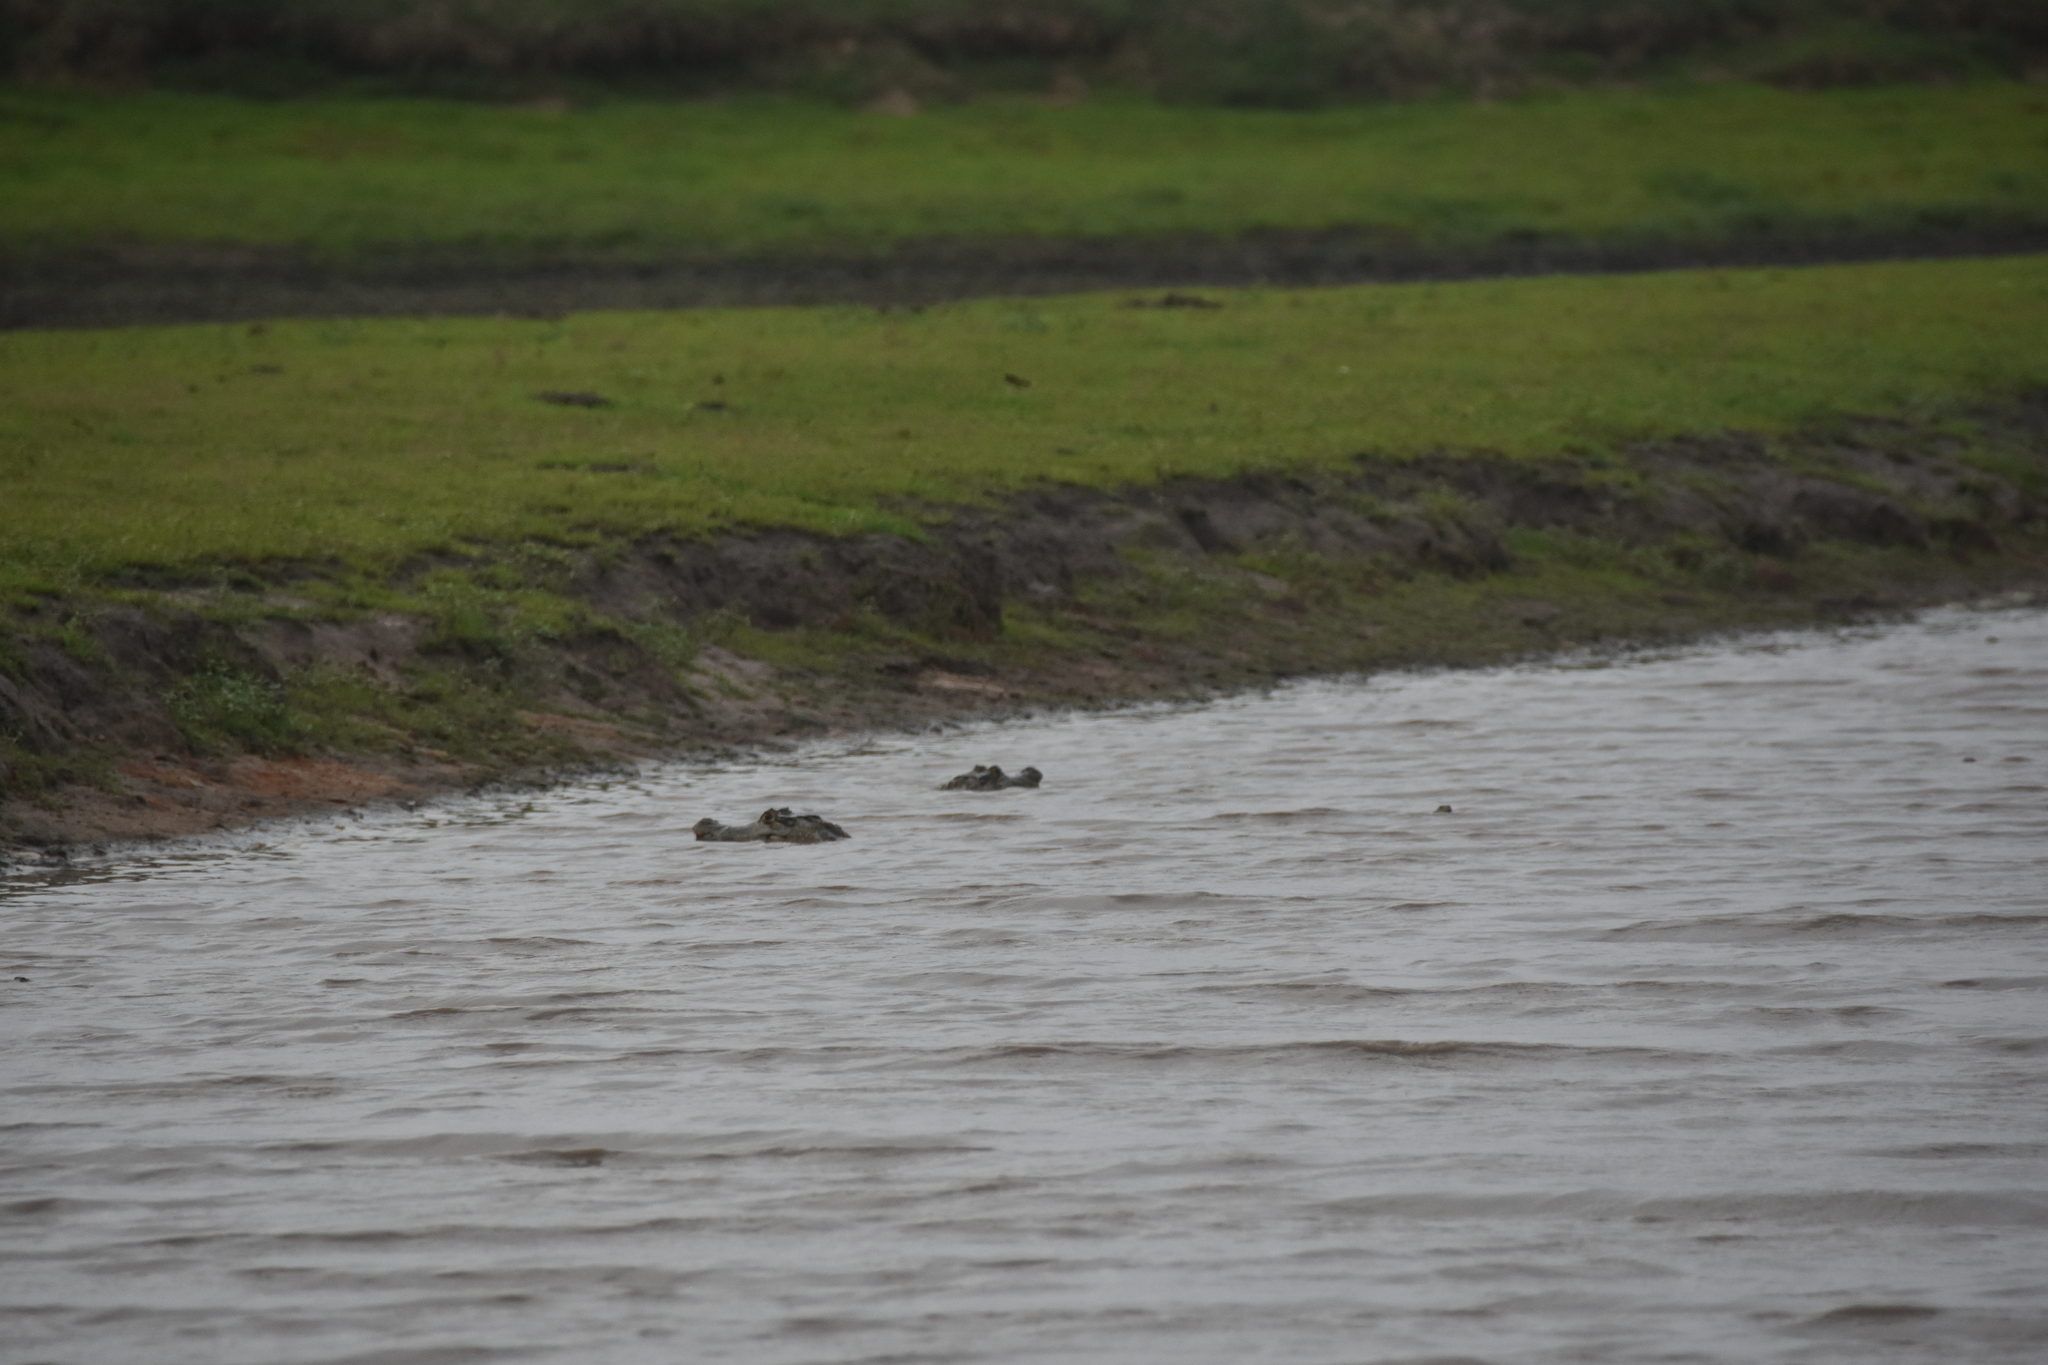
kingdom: Animalia
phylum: Chordata
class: Crocodylia
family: Alligatoridae
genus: Caiman
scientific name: Caiman crocodilus
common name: Common caiman
